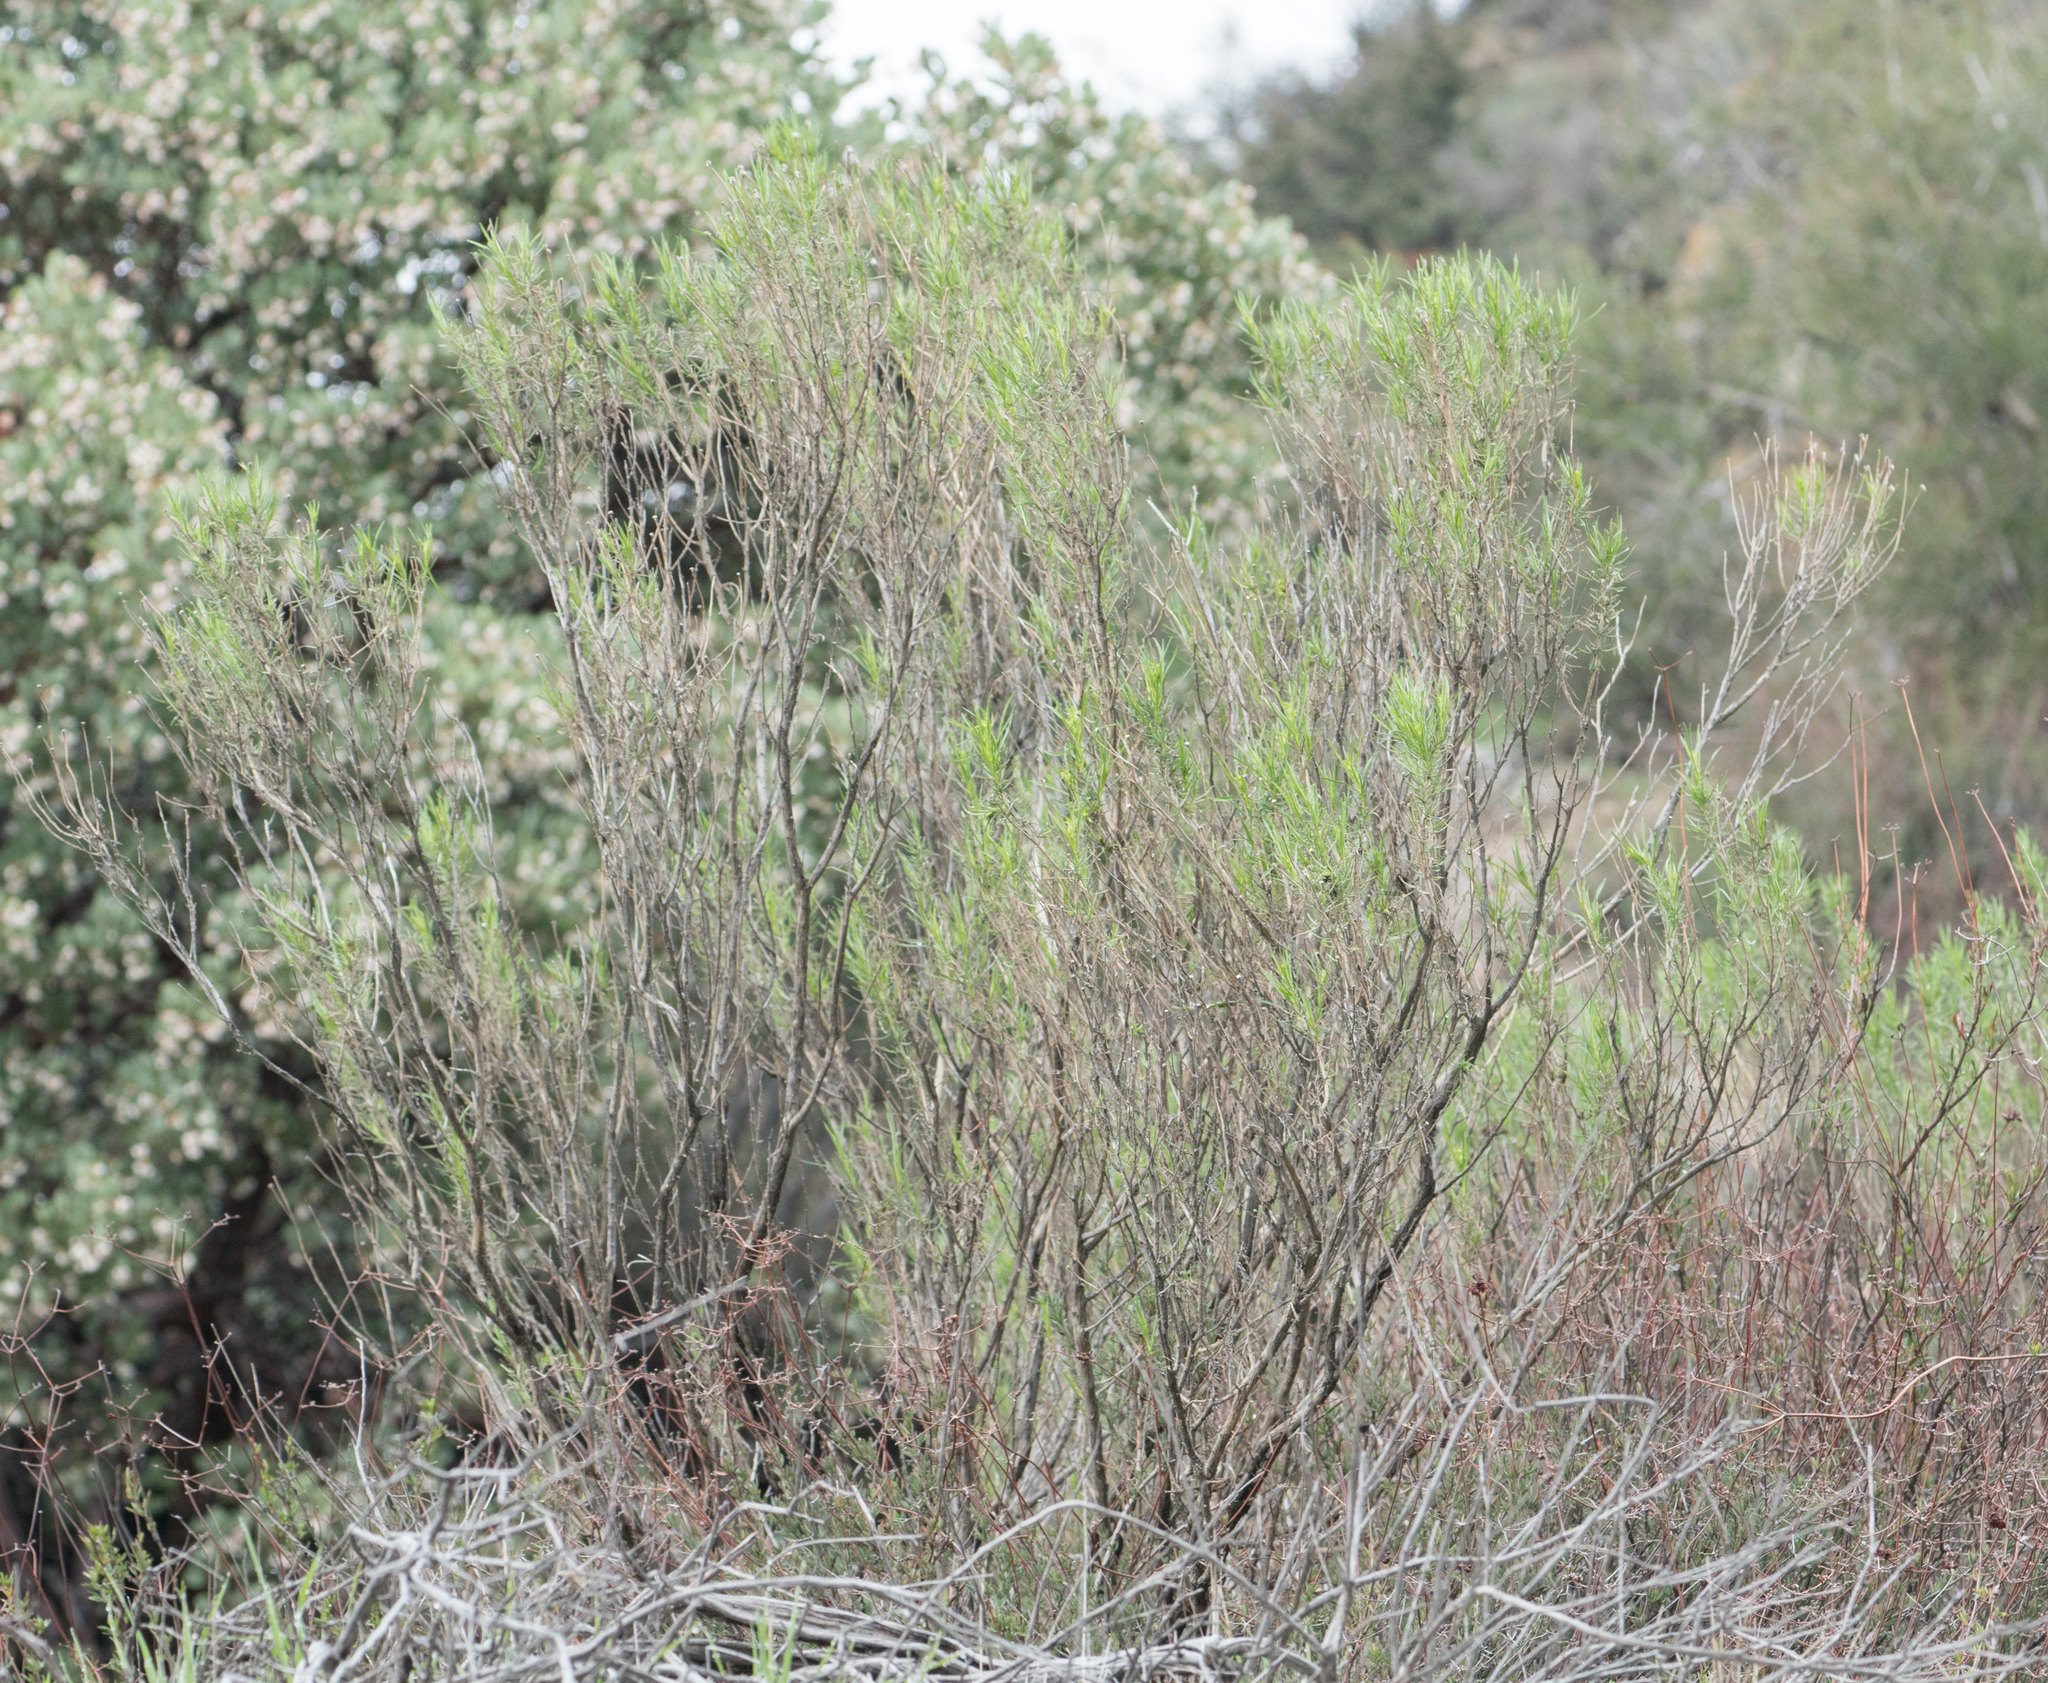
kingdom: Plantae
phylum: Tracheophyta
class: Magnoliopsida
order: Asterales
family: Asteraceae
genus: Artemisia
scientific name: Artemisia californica
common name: California sagebrush
